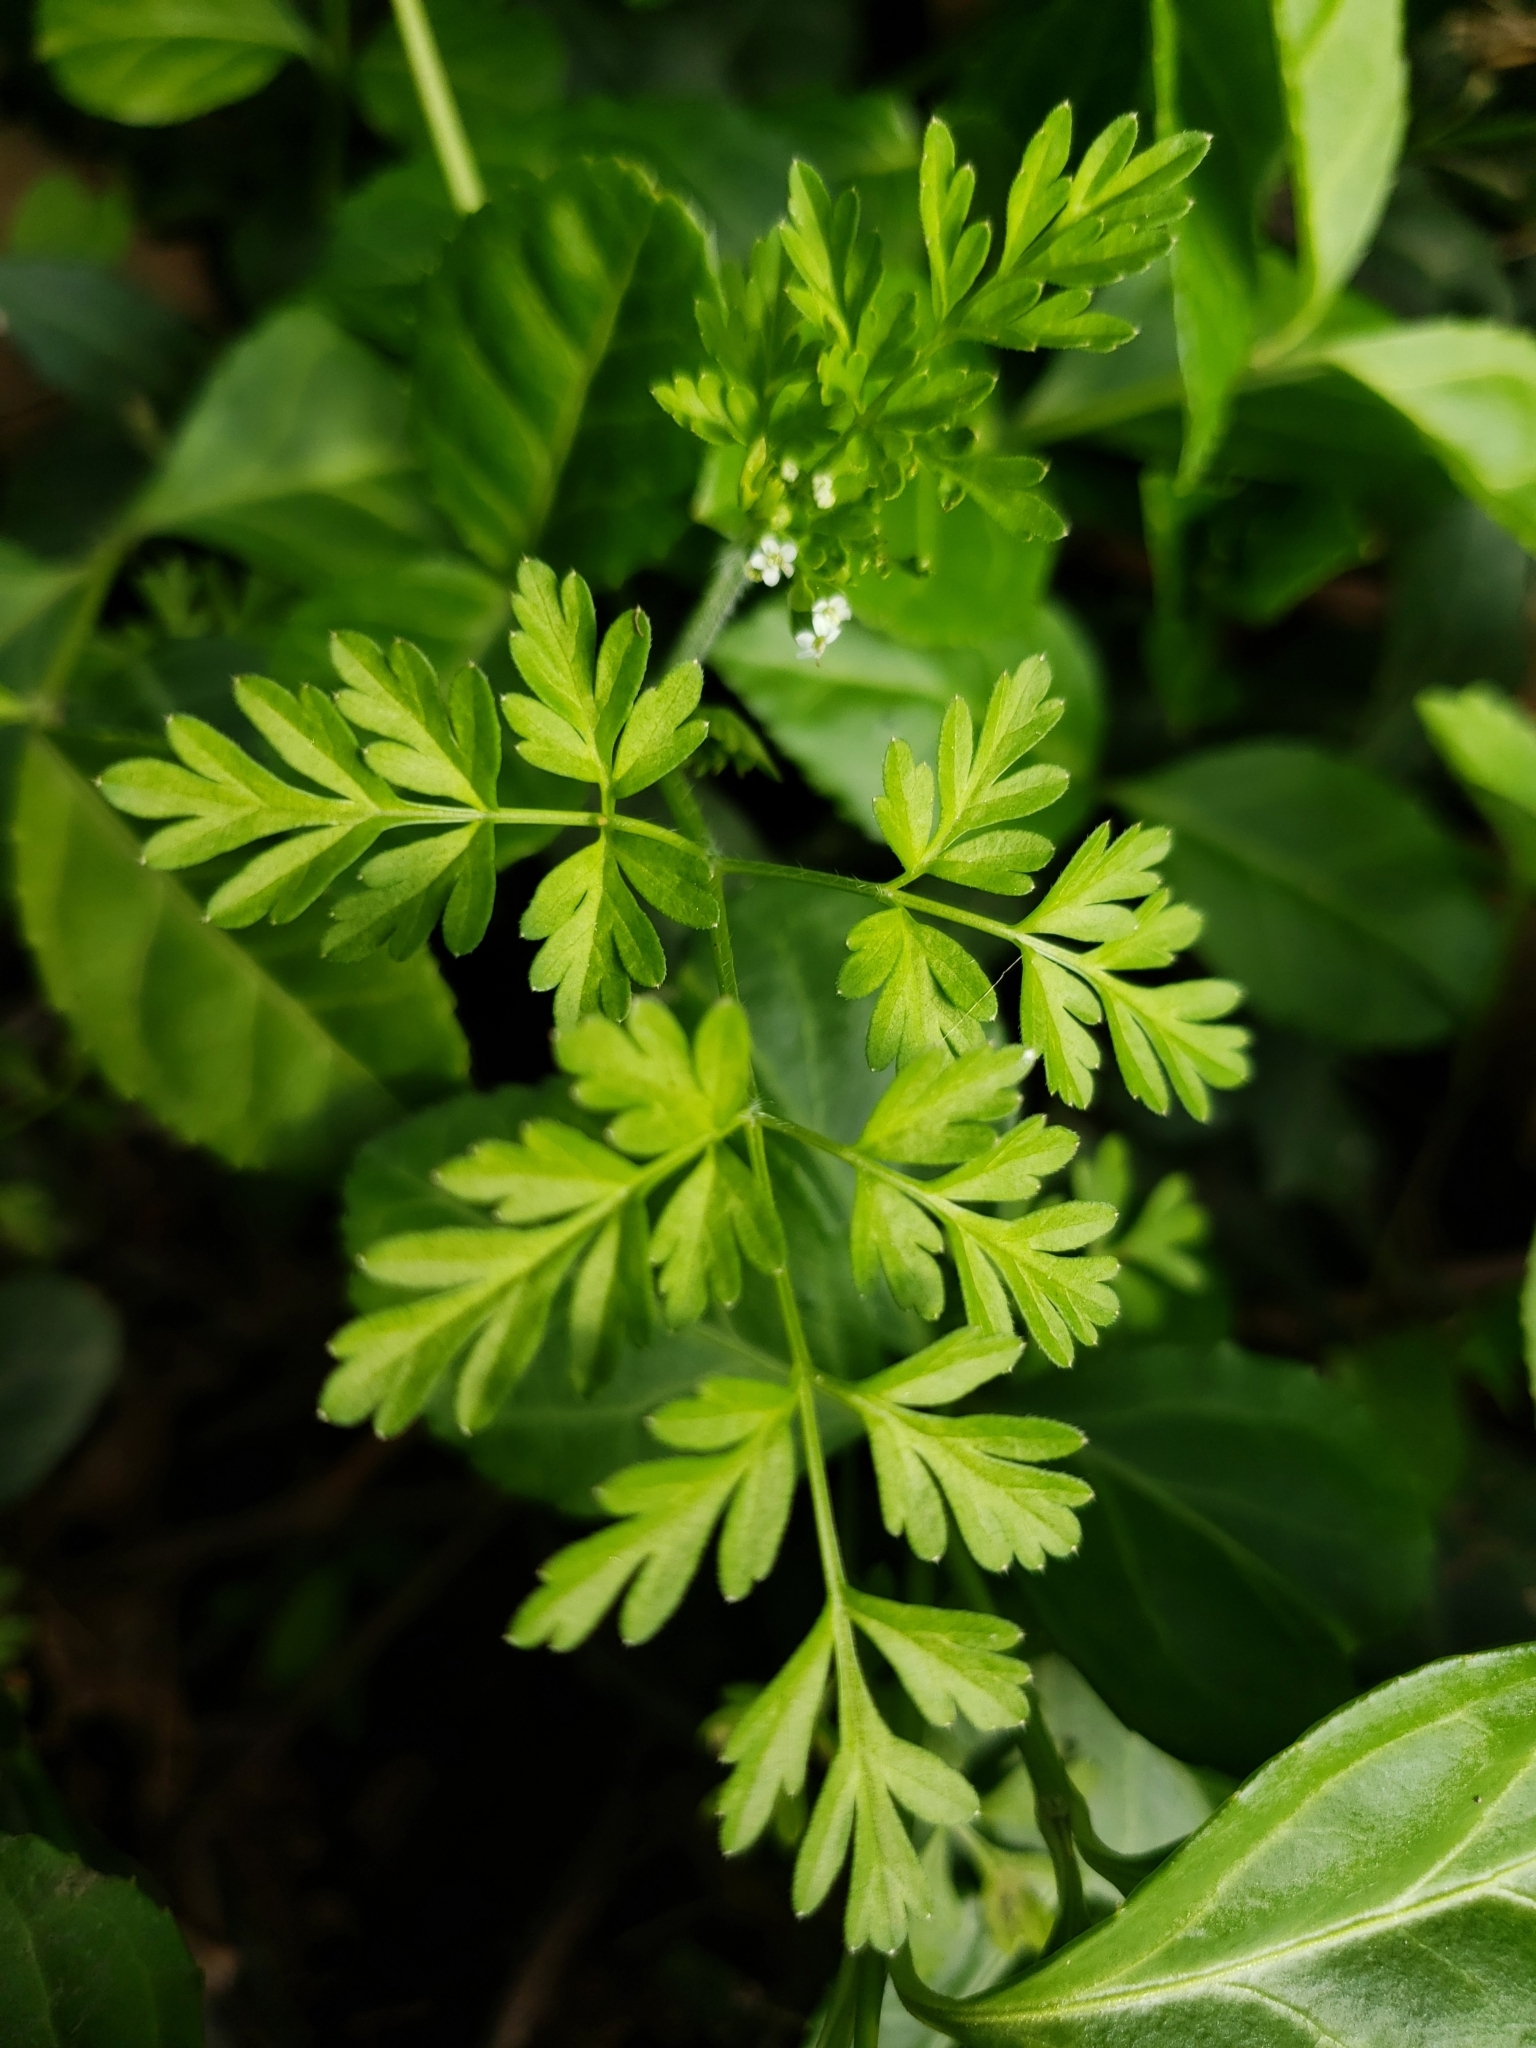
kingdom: Plantae
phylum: Tracheophyta
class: Magnoliopsida
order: Apiales
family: Apiaceae
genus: Chaerophyllum
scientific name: Chaerophyllum procumbens
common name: Spreading chervil
